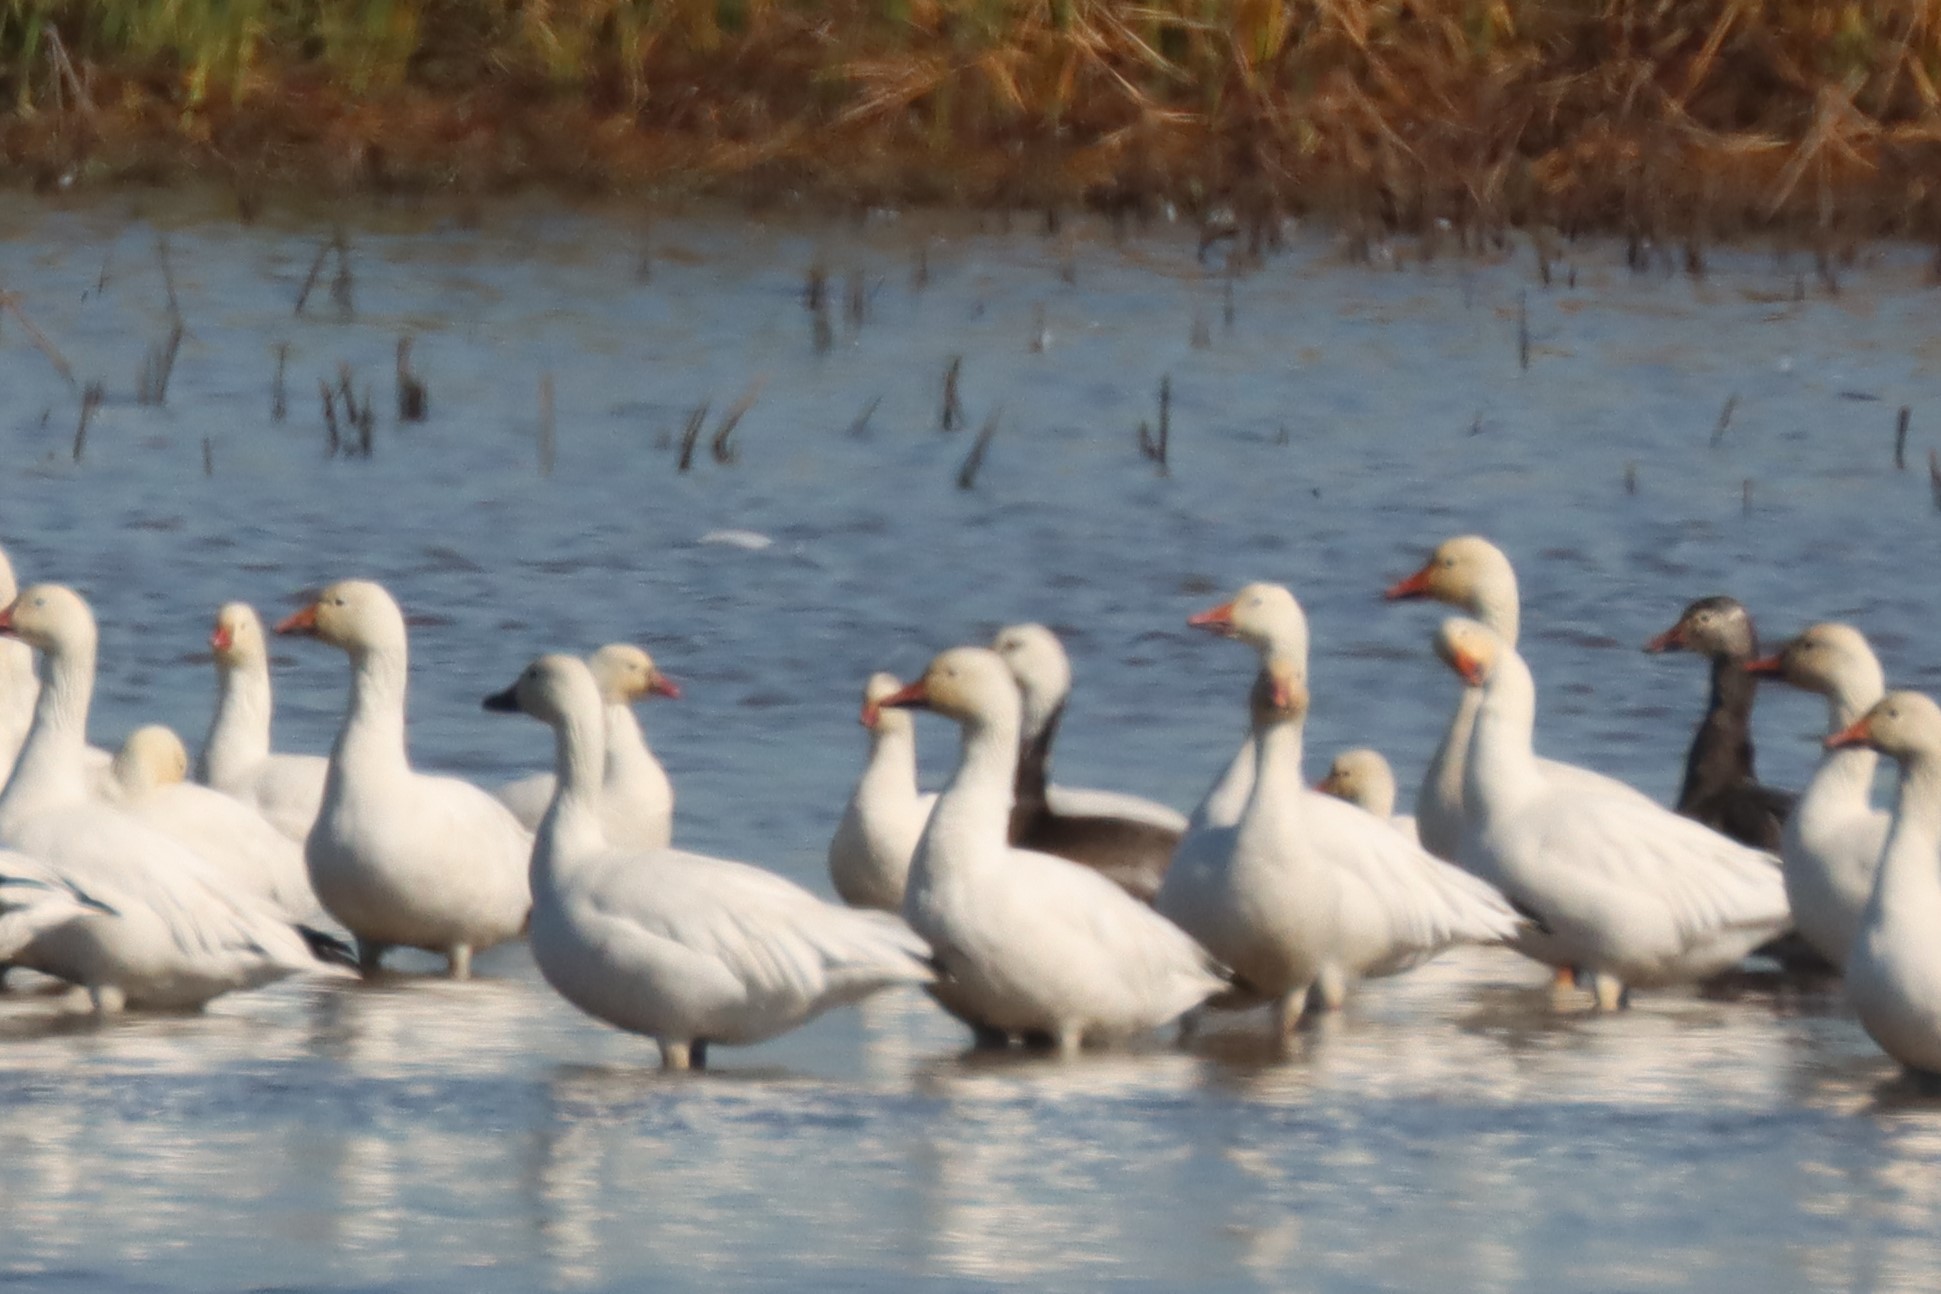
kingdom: Animalia
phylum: Chordata
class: Aves
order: Anseriformes
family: Anatidae
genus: Anser
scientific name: Anser caerulescens
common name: Snow goose
